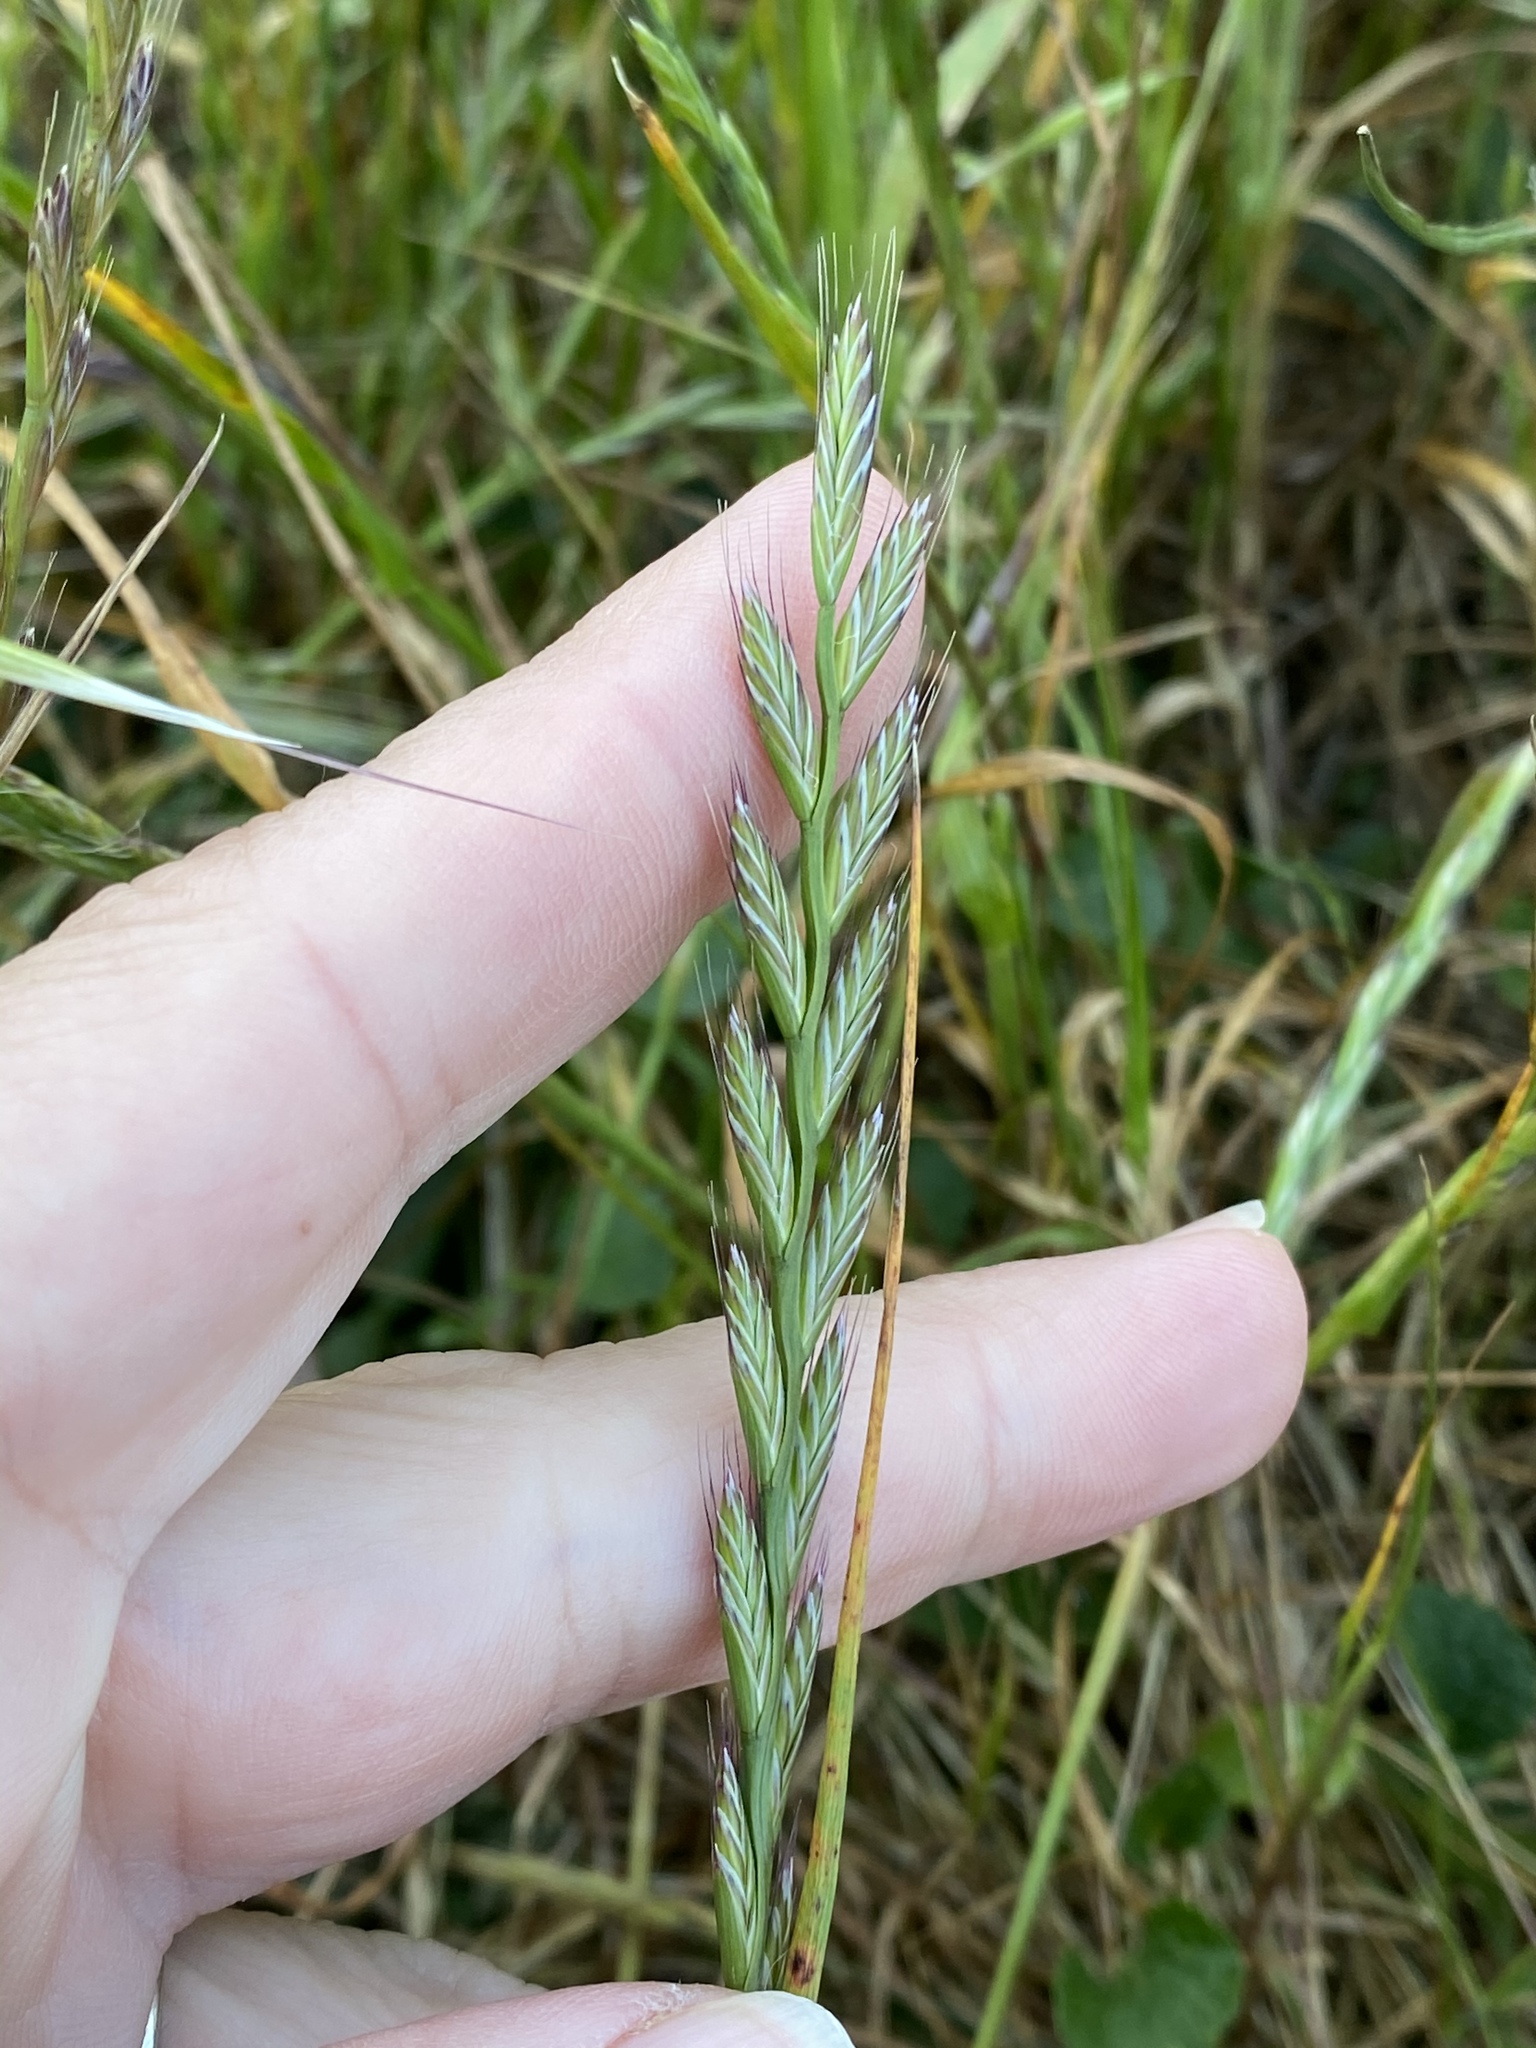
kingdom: Plantae
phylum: Tracheophyta
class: Liliopsida
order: Poales
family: Poaceae
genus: Lolium
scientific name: Lolium multiflorum
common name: Annual ryegrass
